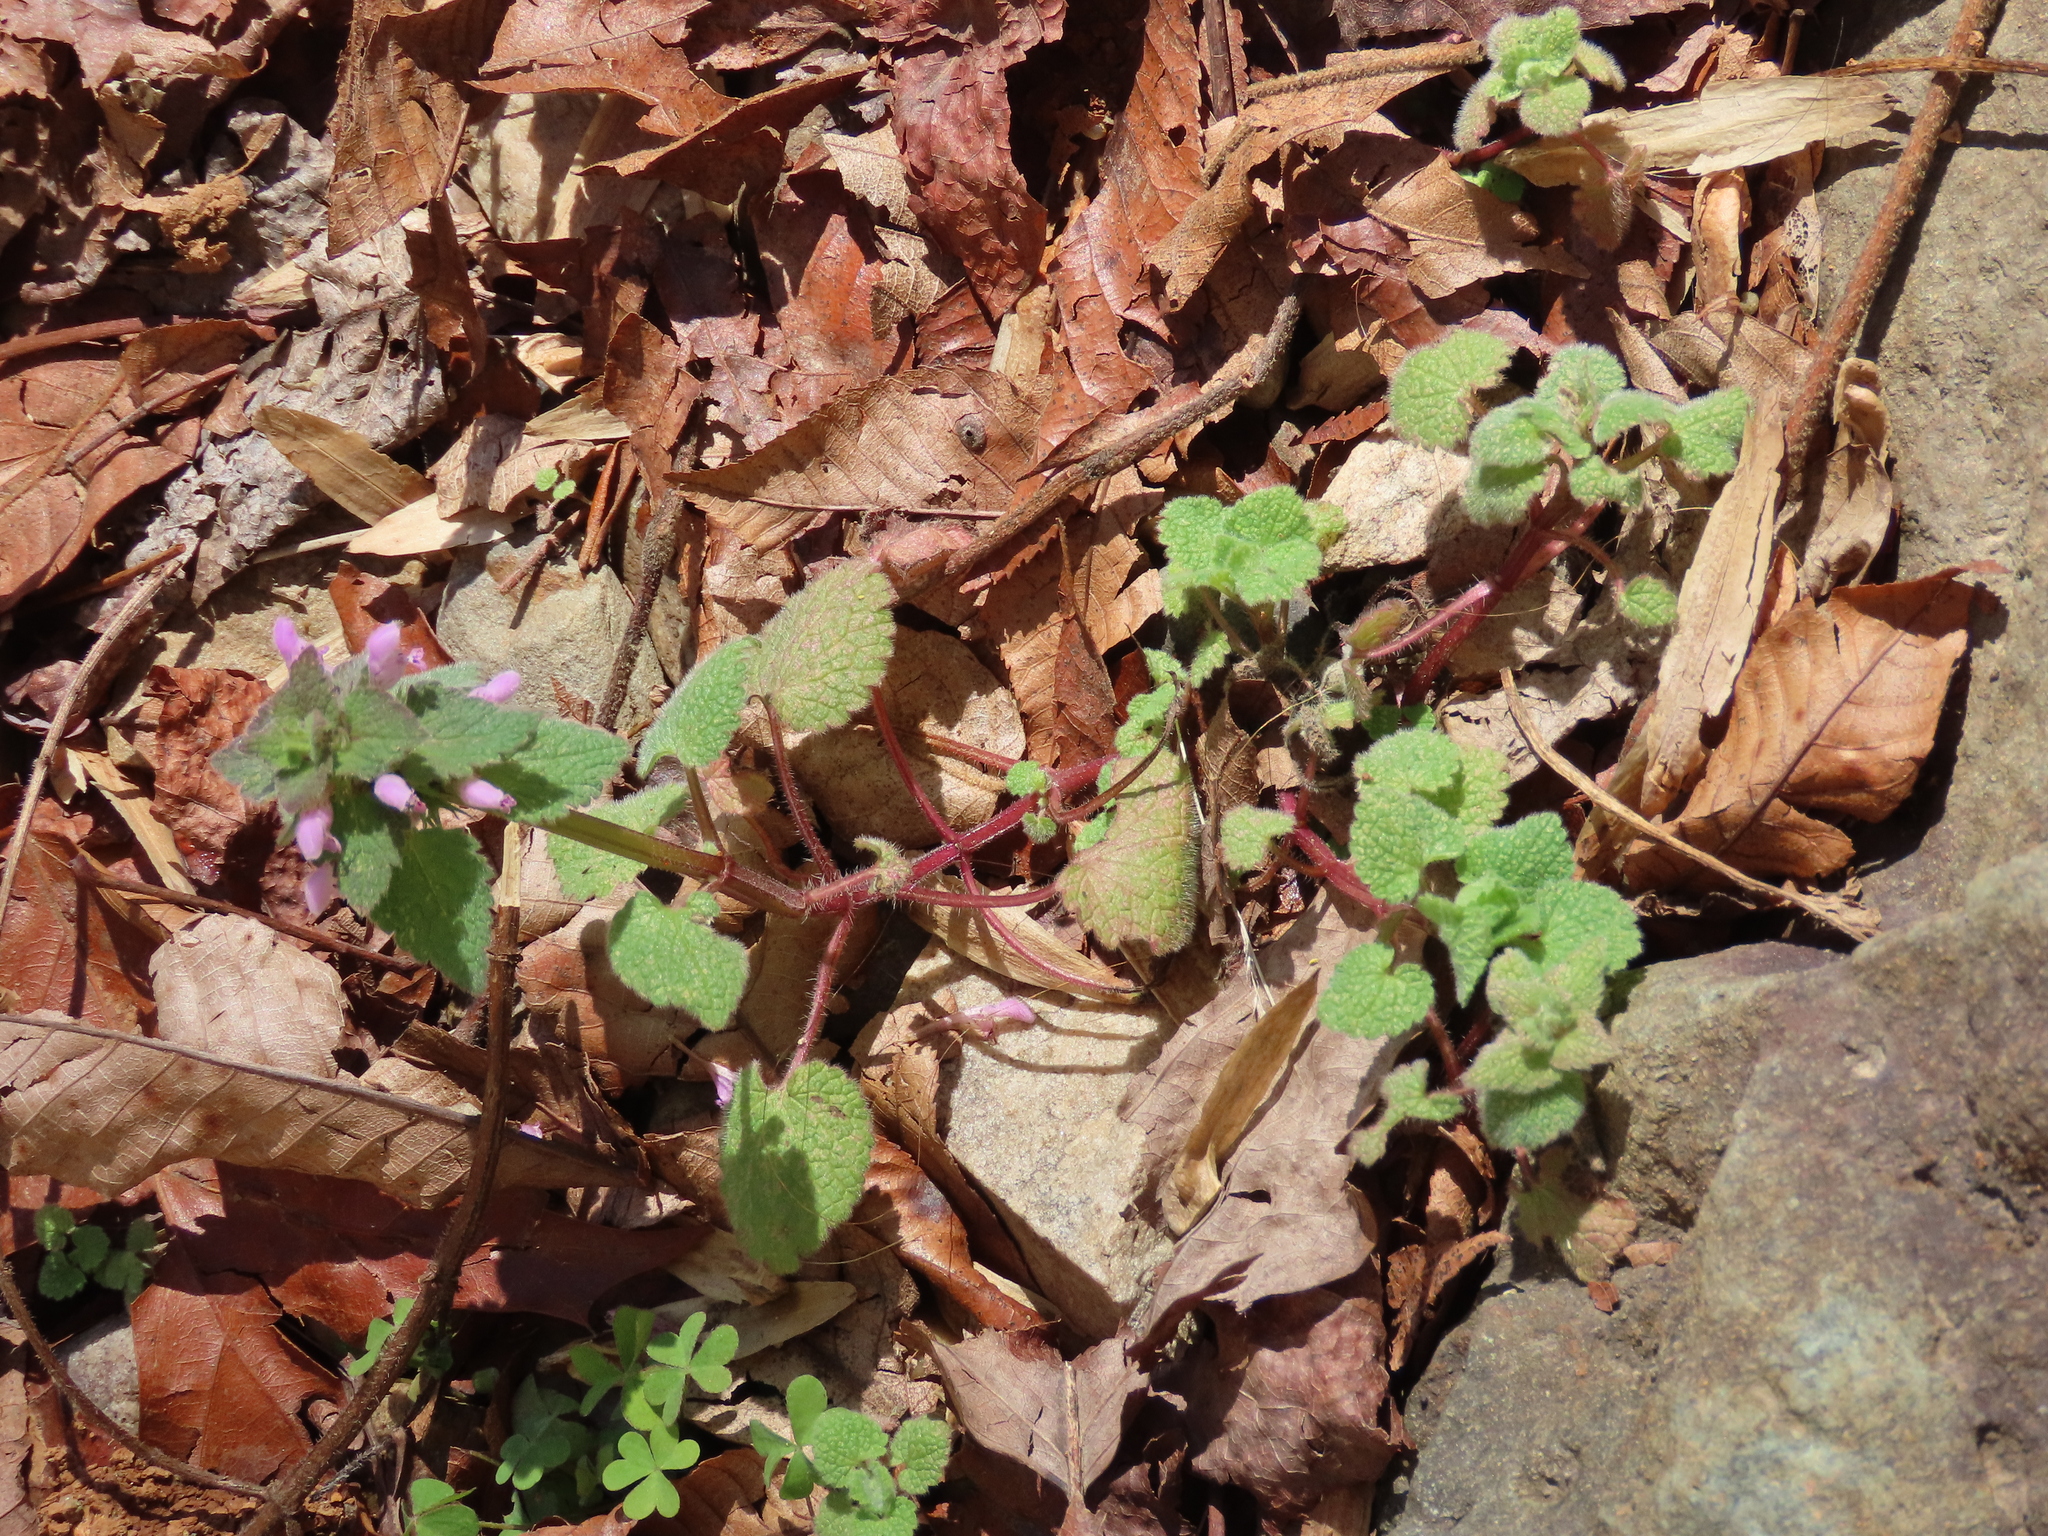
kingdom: Plantae
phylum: Tracheophyta
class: Magnoliopsida
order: Lamiales
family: Lamiaceae
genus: Lamium
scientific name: Lamium purpureum
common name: Red dead-nettle
